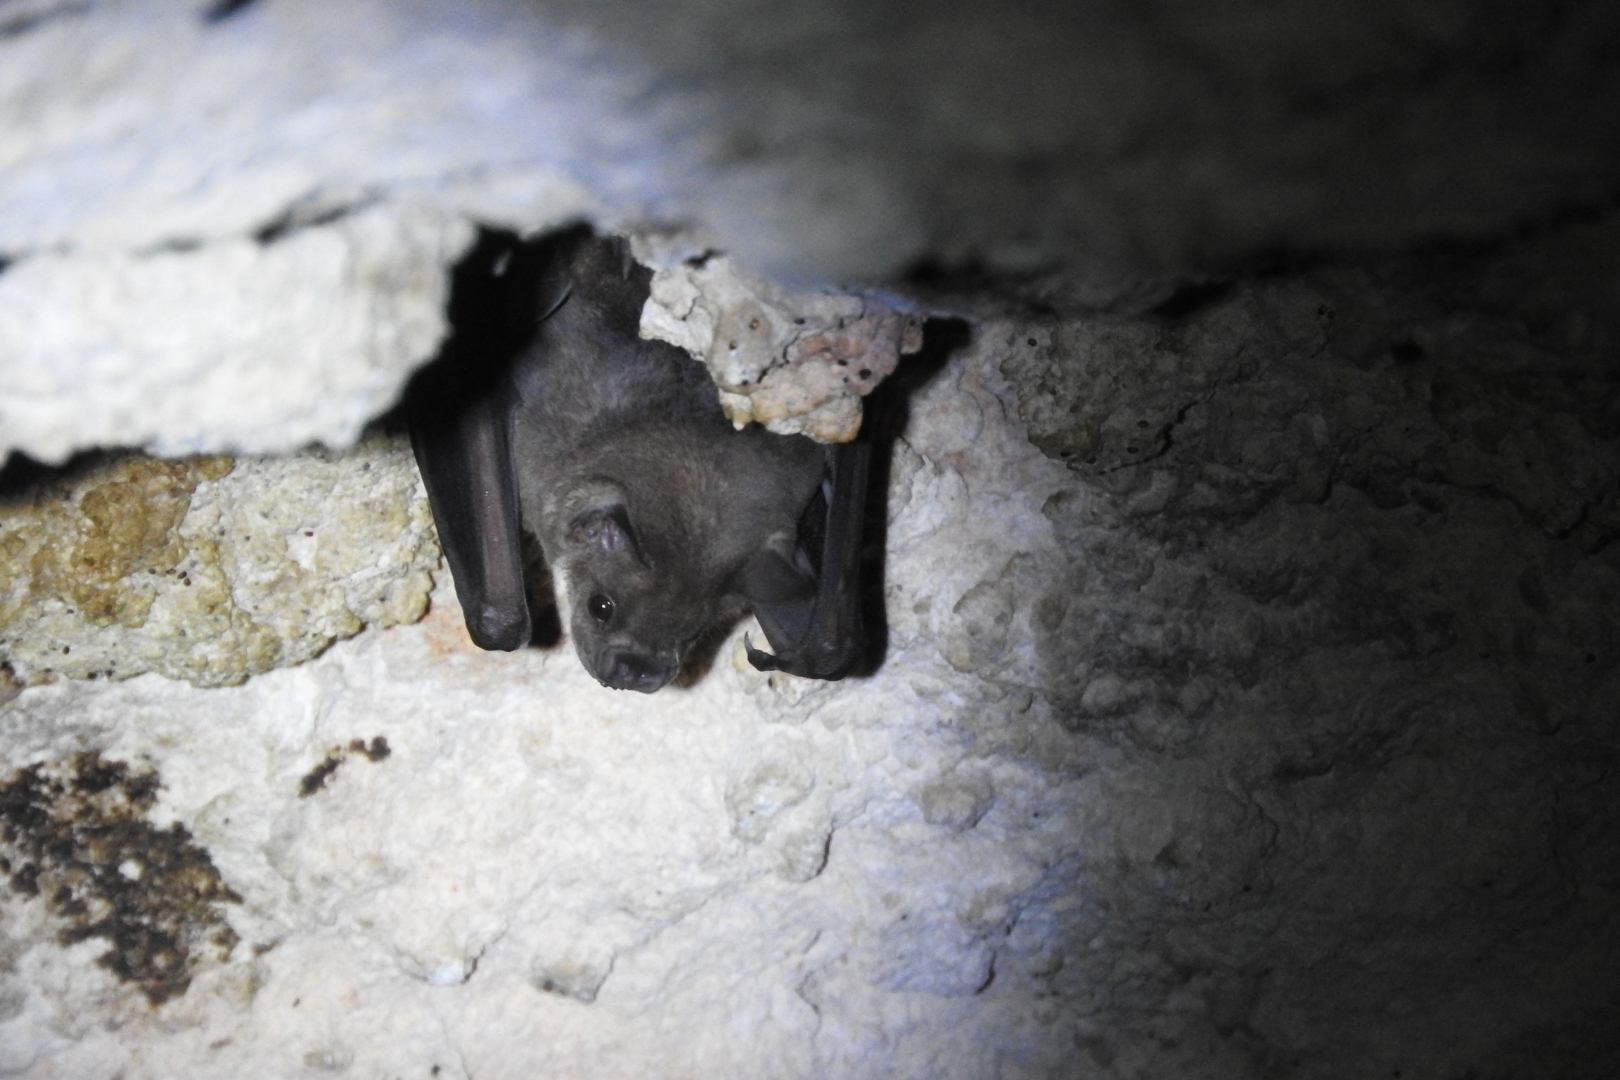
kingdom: Animalia
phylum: Chordata
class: Mammalia
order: Chiroptera
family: Phyllostomidae
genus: Artibeus
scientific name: Artibeus jamaicensis
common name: Jamaican fruit-eating bat
